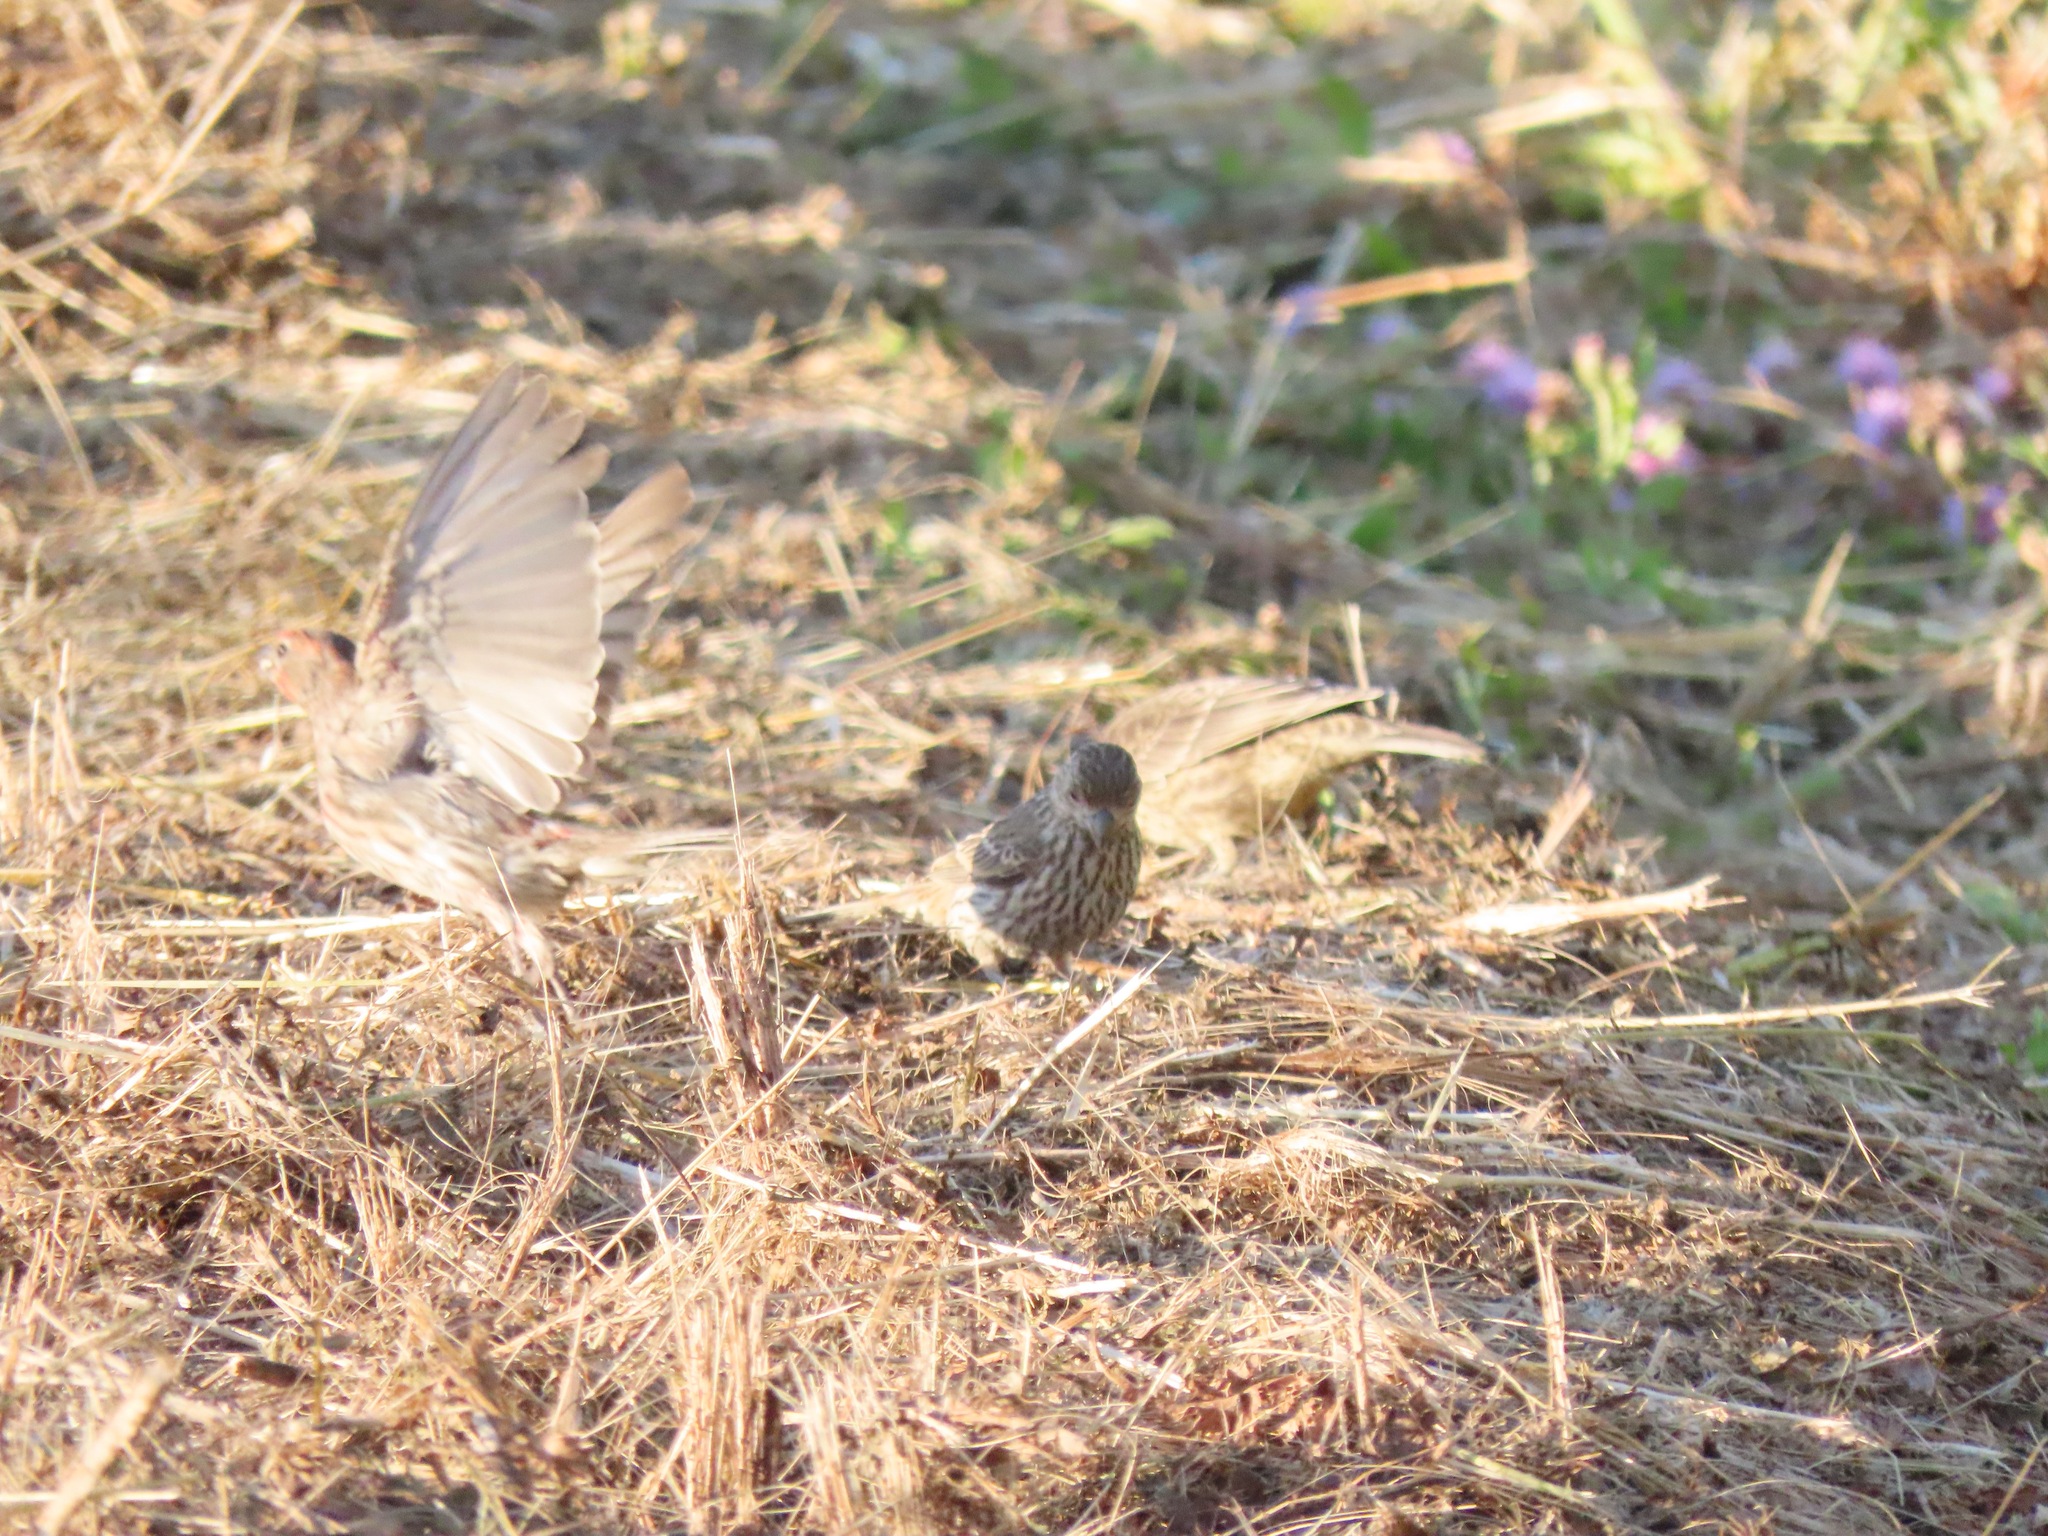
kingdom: Animalia
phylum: Chordata
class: Aves
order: Passeriformes
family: Fringillidae
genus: Haemorhous
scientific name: Haemorhous mexicanus
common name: House finch
